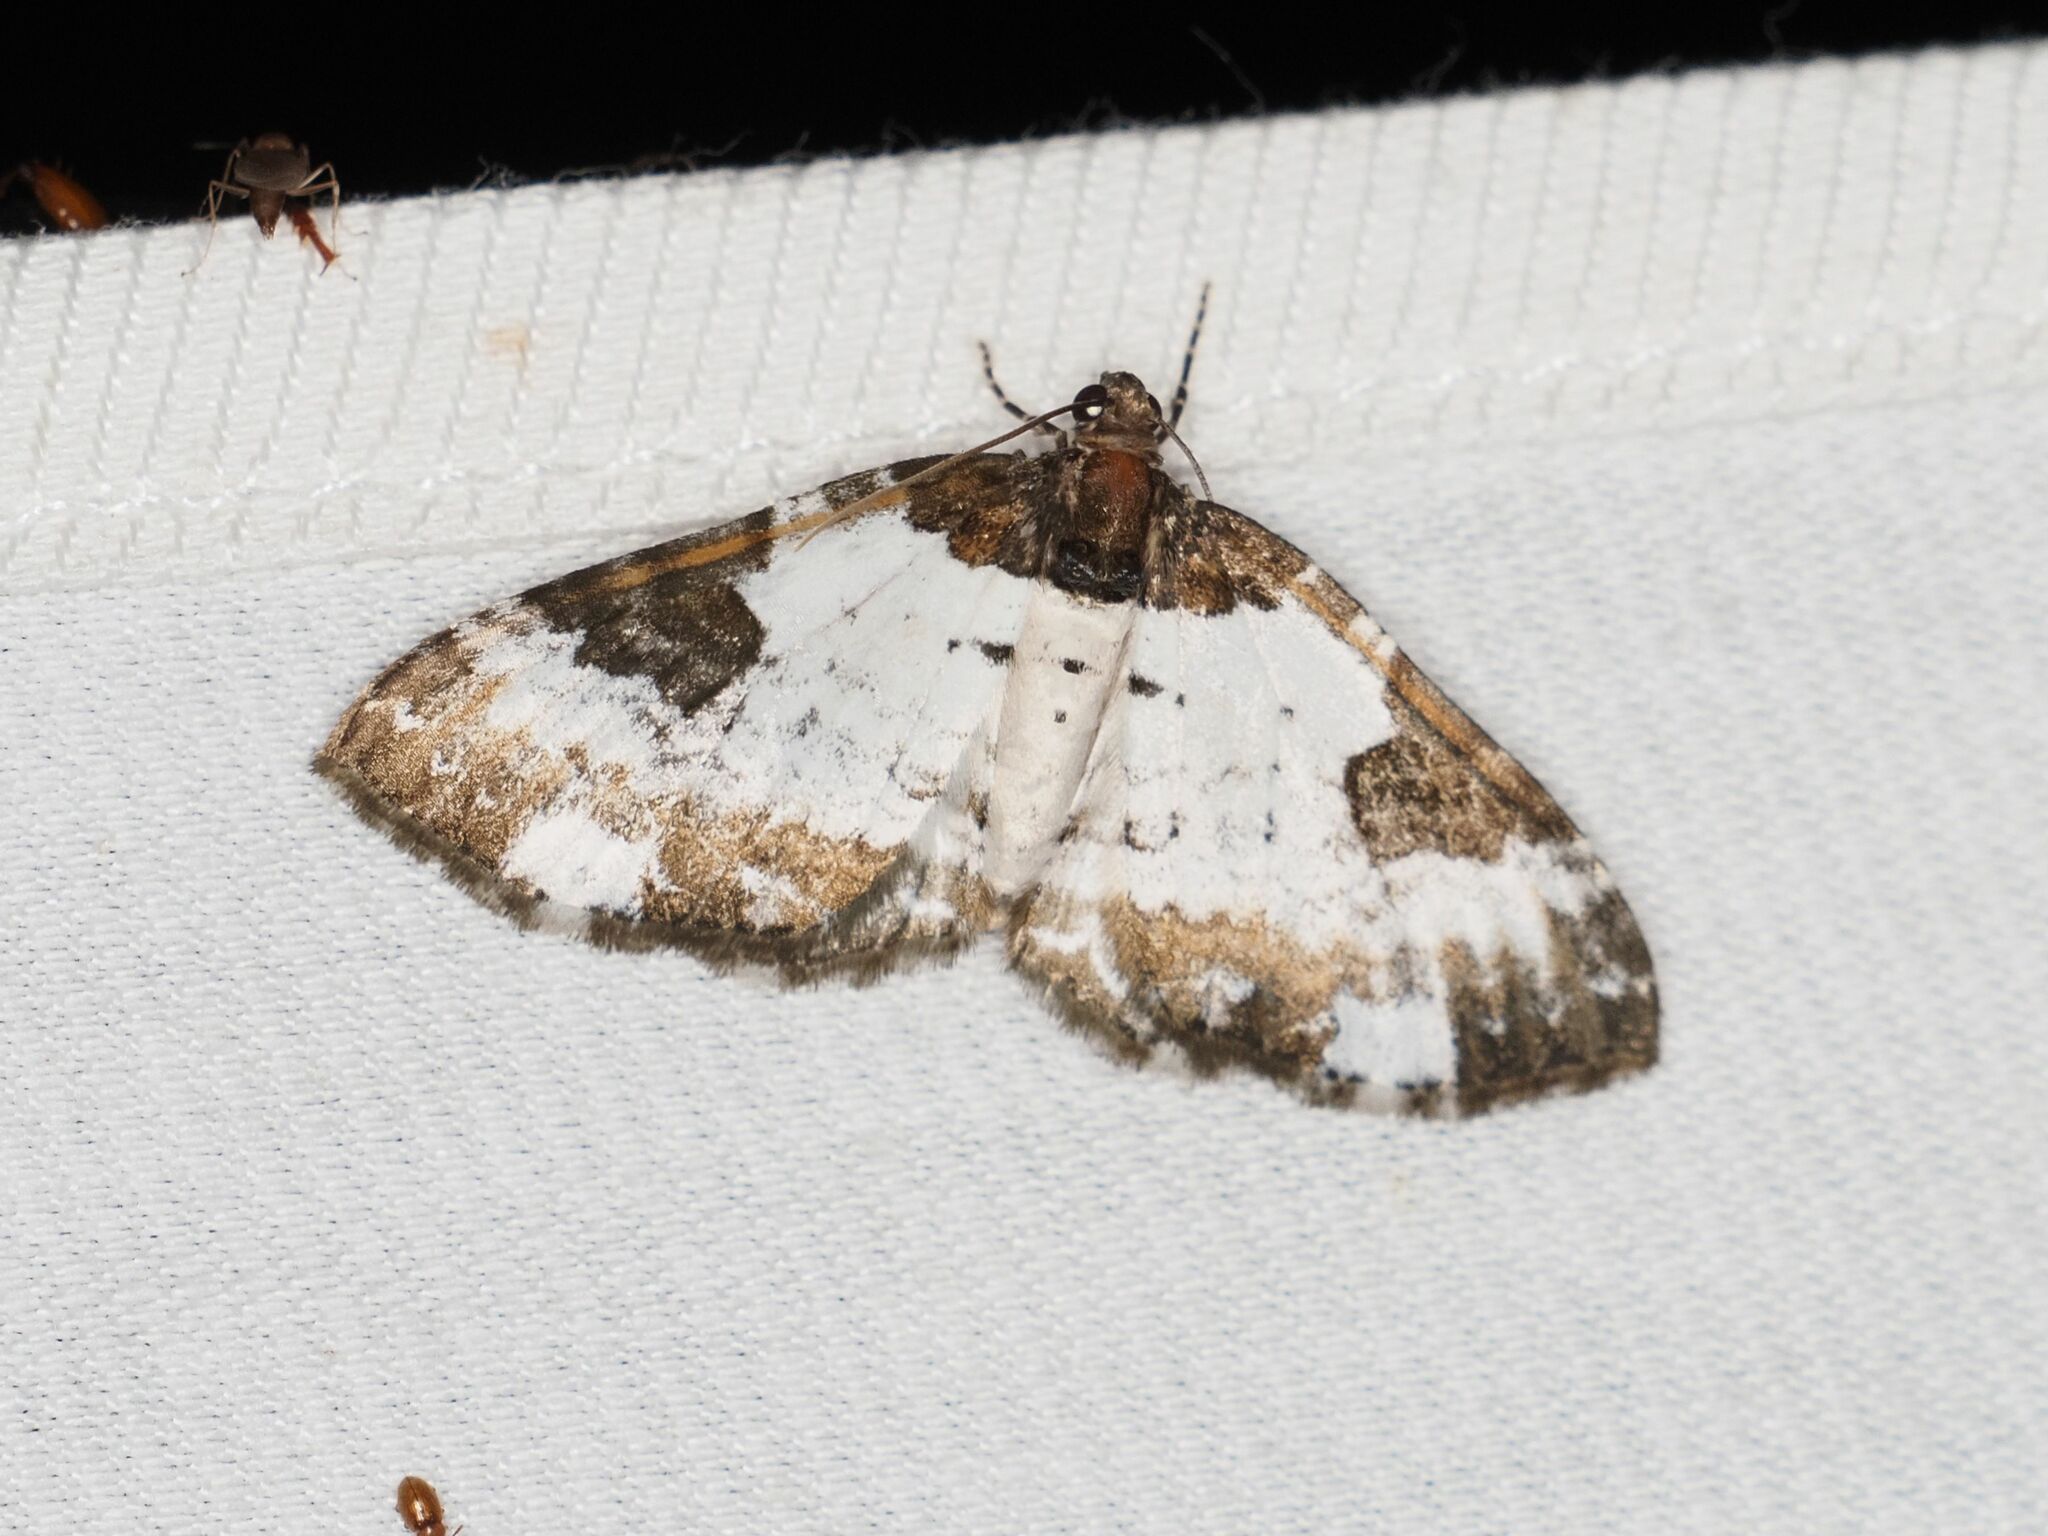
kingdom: Animalia
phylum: Arthropoda
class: Insecta
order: Lepidoptera
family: Geometridae
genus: Melanthia
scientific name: Melanthia procellata
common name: Pretty chalk carpet
